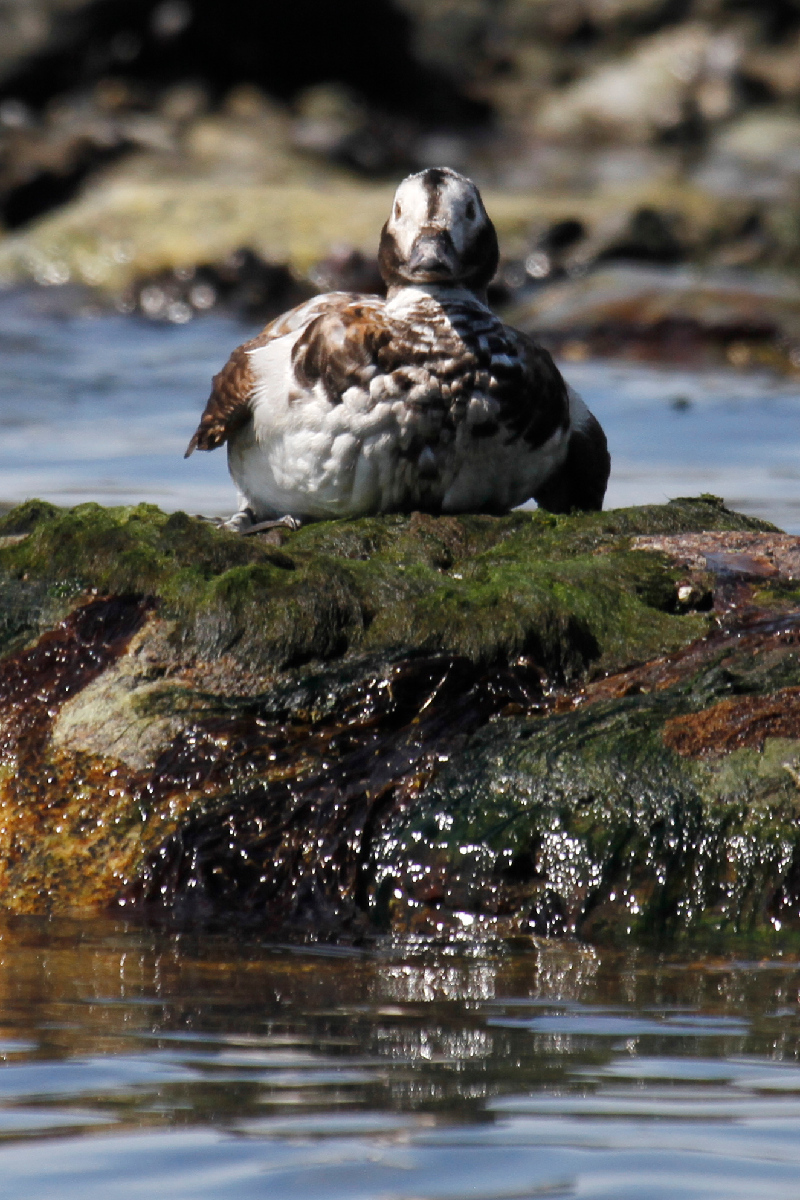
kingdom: Animalia
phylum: Chordata
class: Aves
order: Anseriformes
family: Anatidae
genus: Clangula
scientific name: Clangula hyemalis
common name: Long-tailed duck
